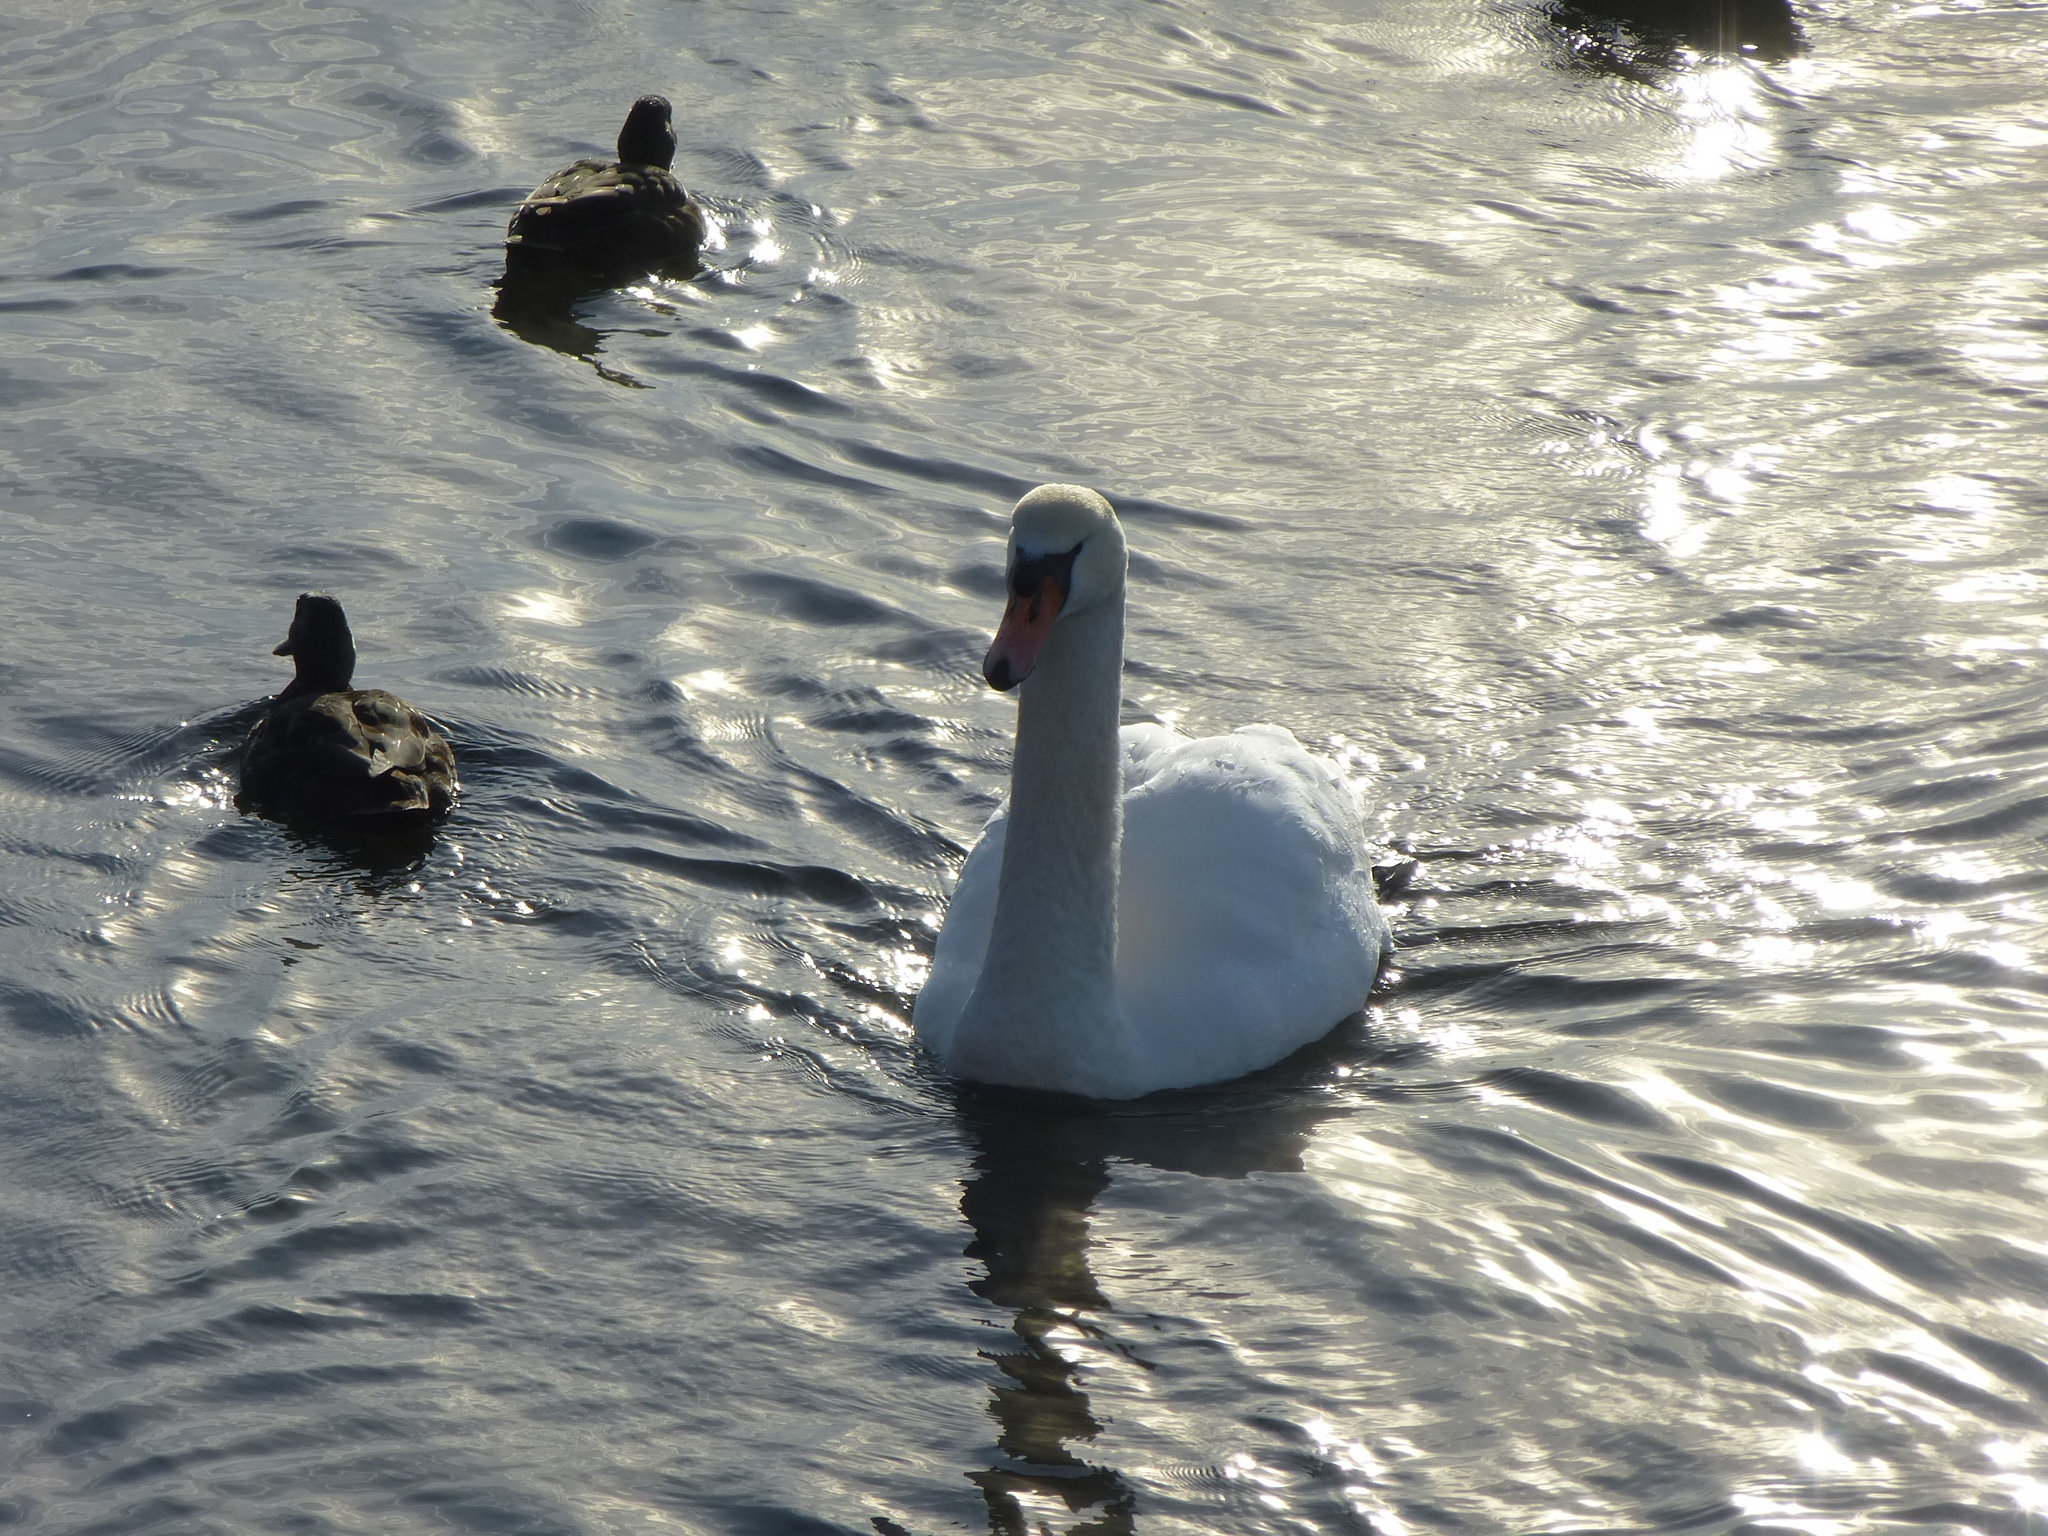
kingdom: Animalia
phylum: Chordata
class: Aves
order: Anseriformes
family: Anatidae
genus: Cygnus
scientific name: Cygnus olor
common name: Mute swan
